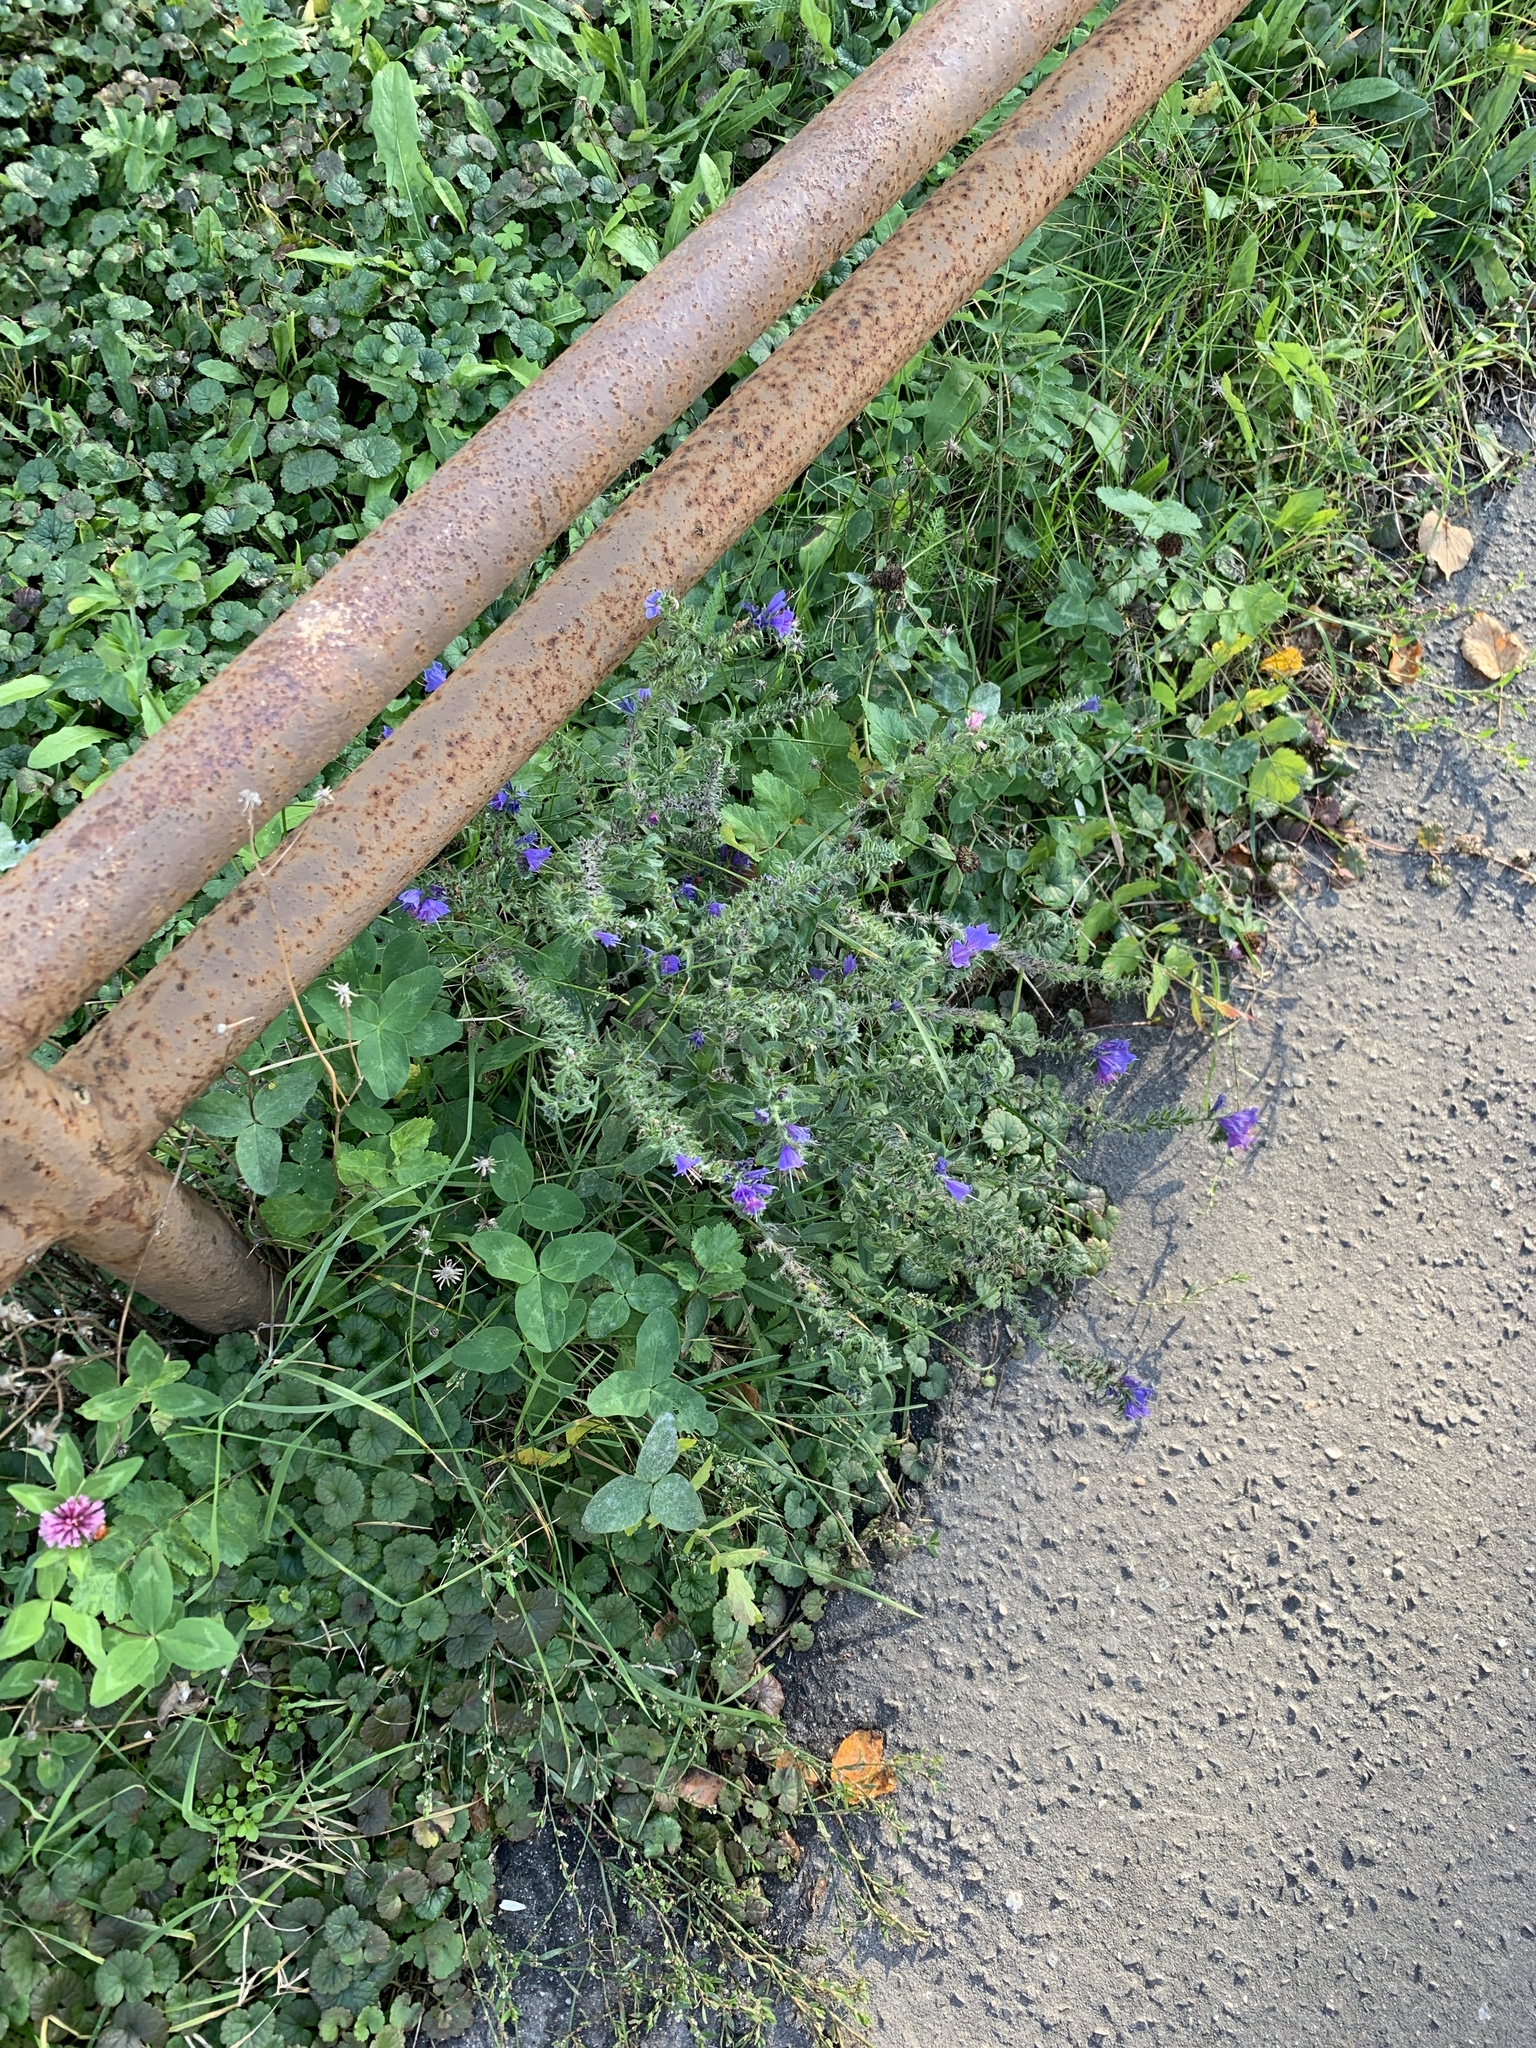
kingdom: Plantae
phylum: Tracheophyta
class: Magnoliopsida
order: Boraginales
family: Boraginaceae
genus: Echium
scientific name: Echium vulgare
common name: Common viper's bugloss
